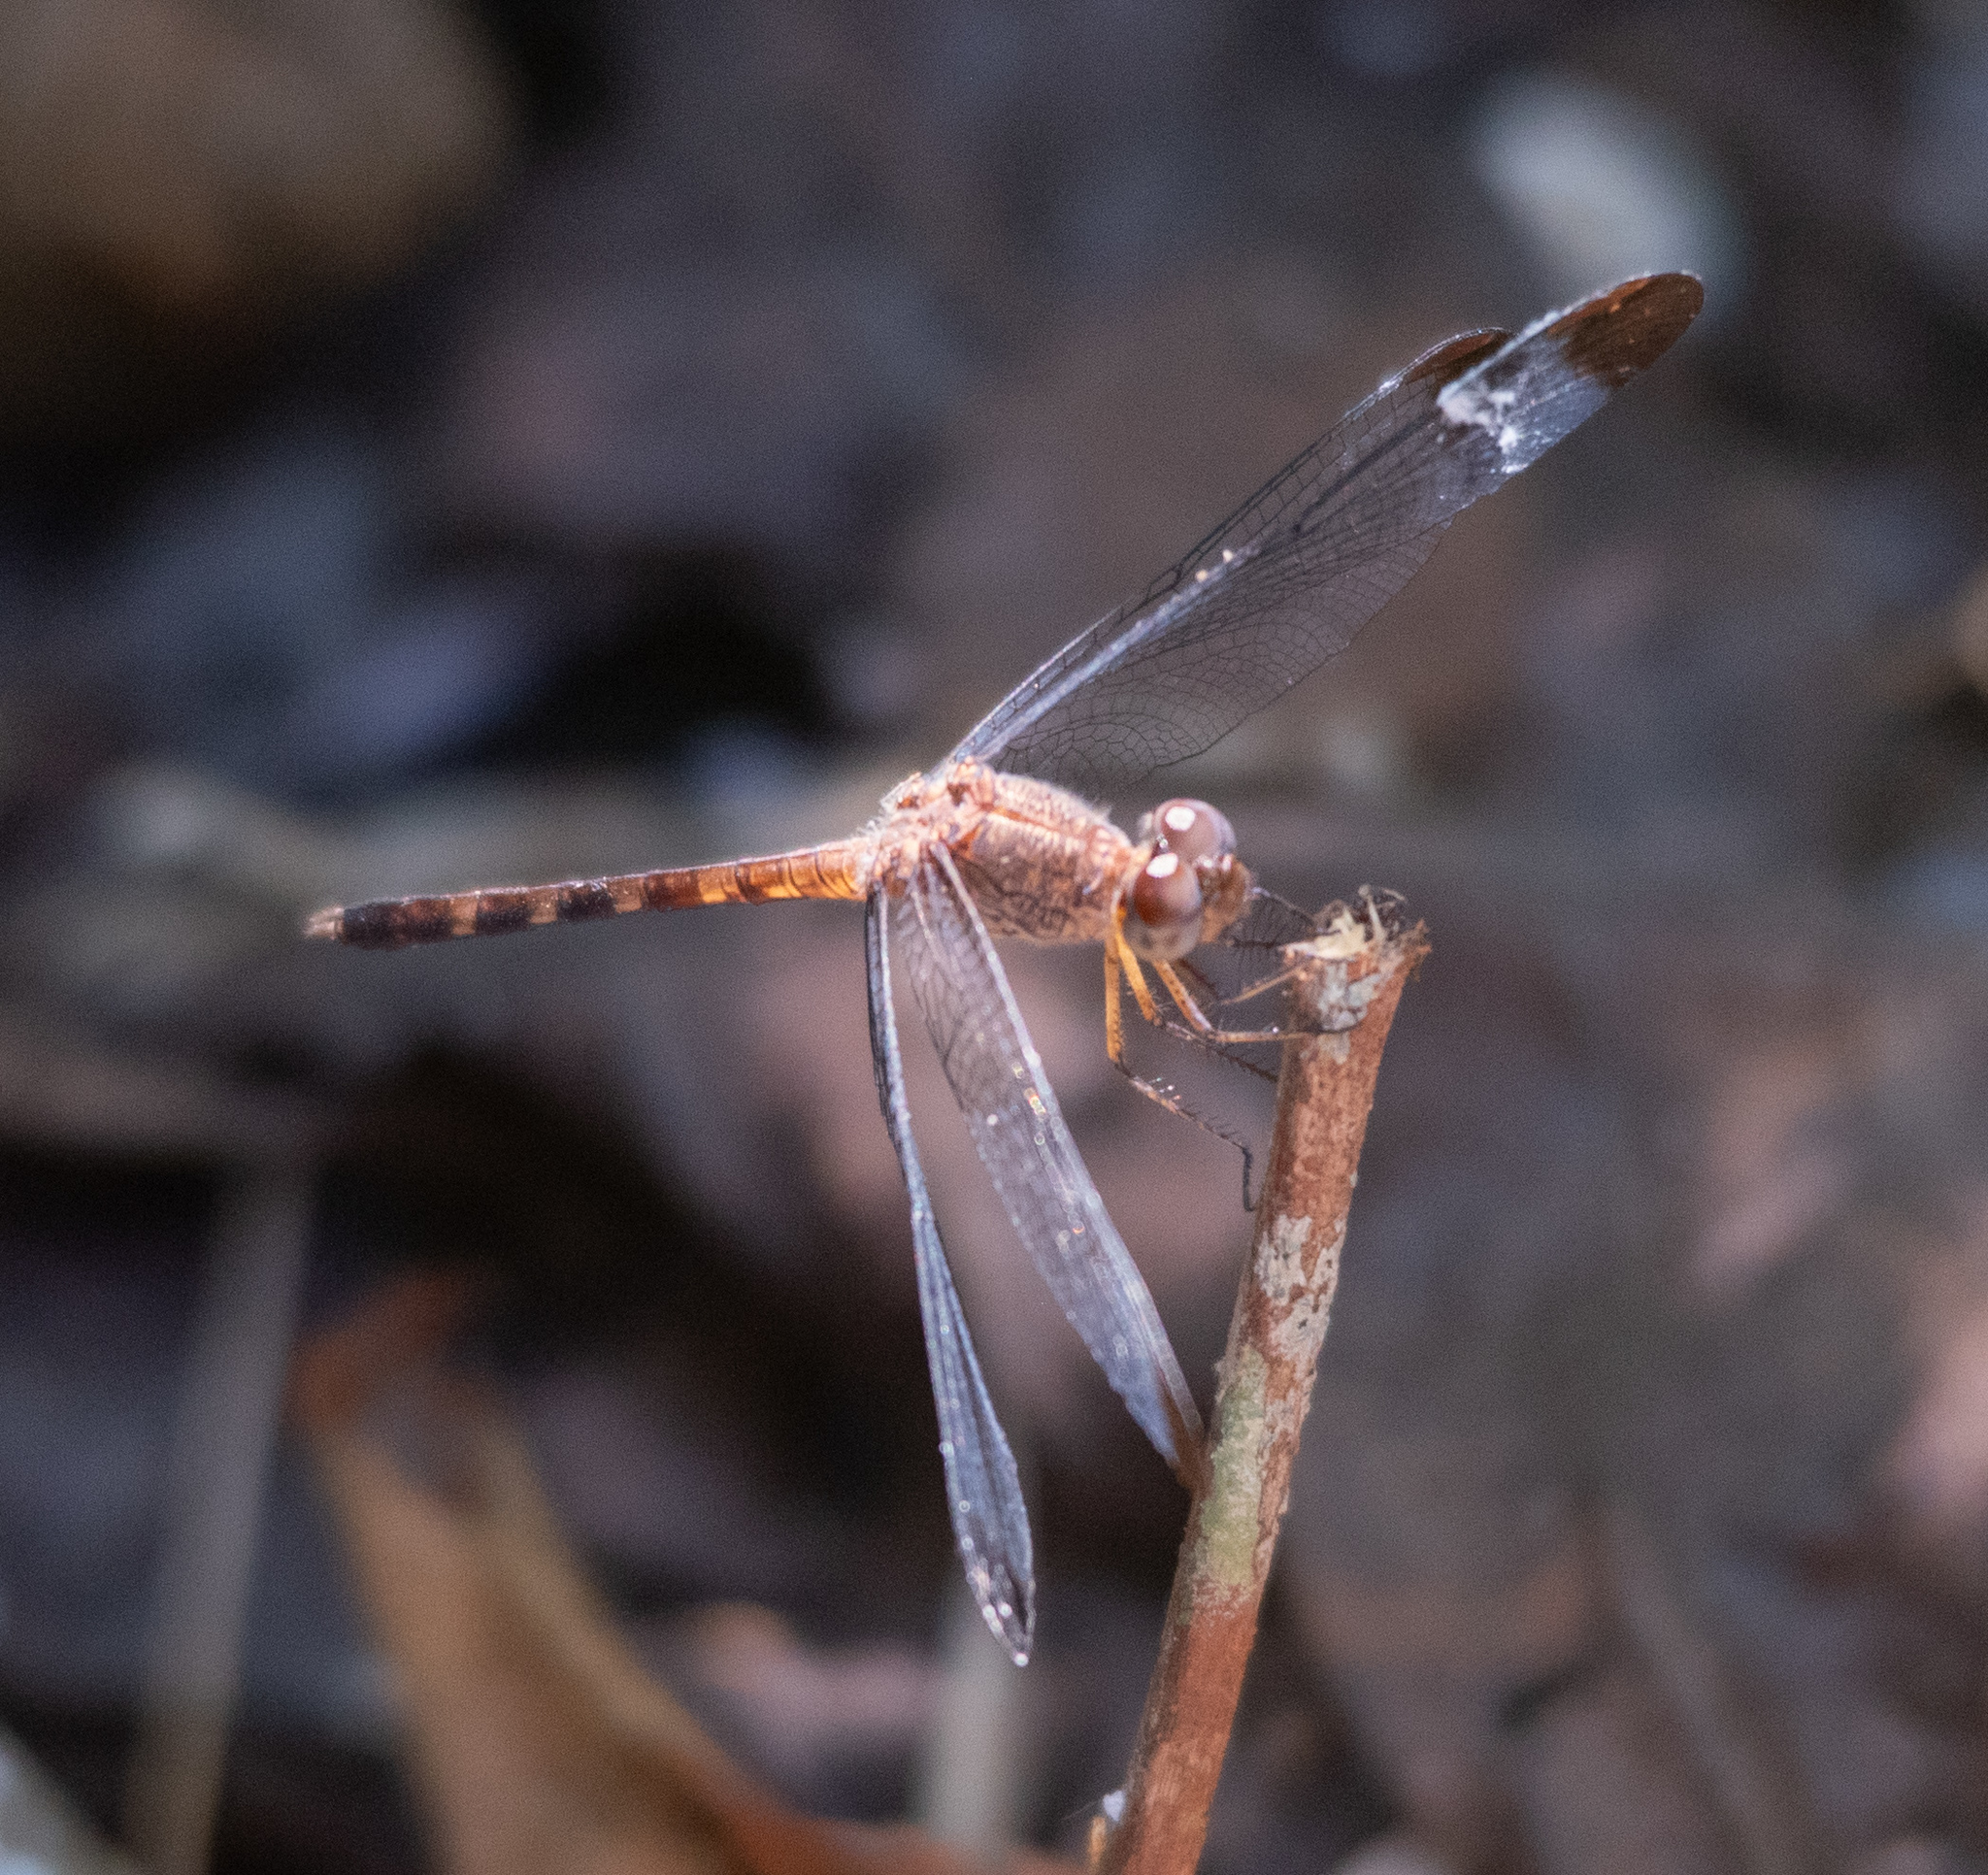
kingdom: Animalia
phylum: Arthropoda
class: Insecta
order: Odonata
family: Libellulidae
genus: Uracis
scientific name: Uracis imbuta
